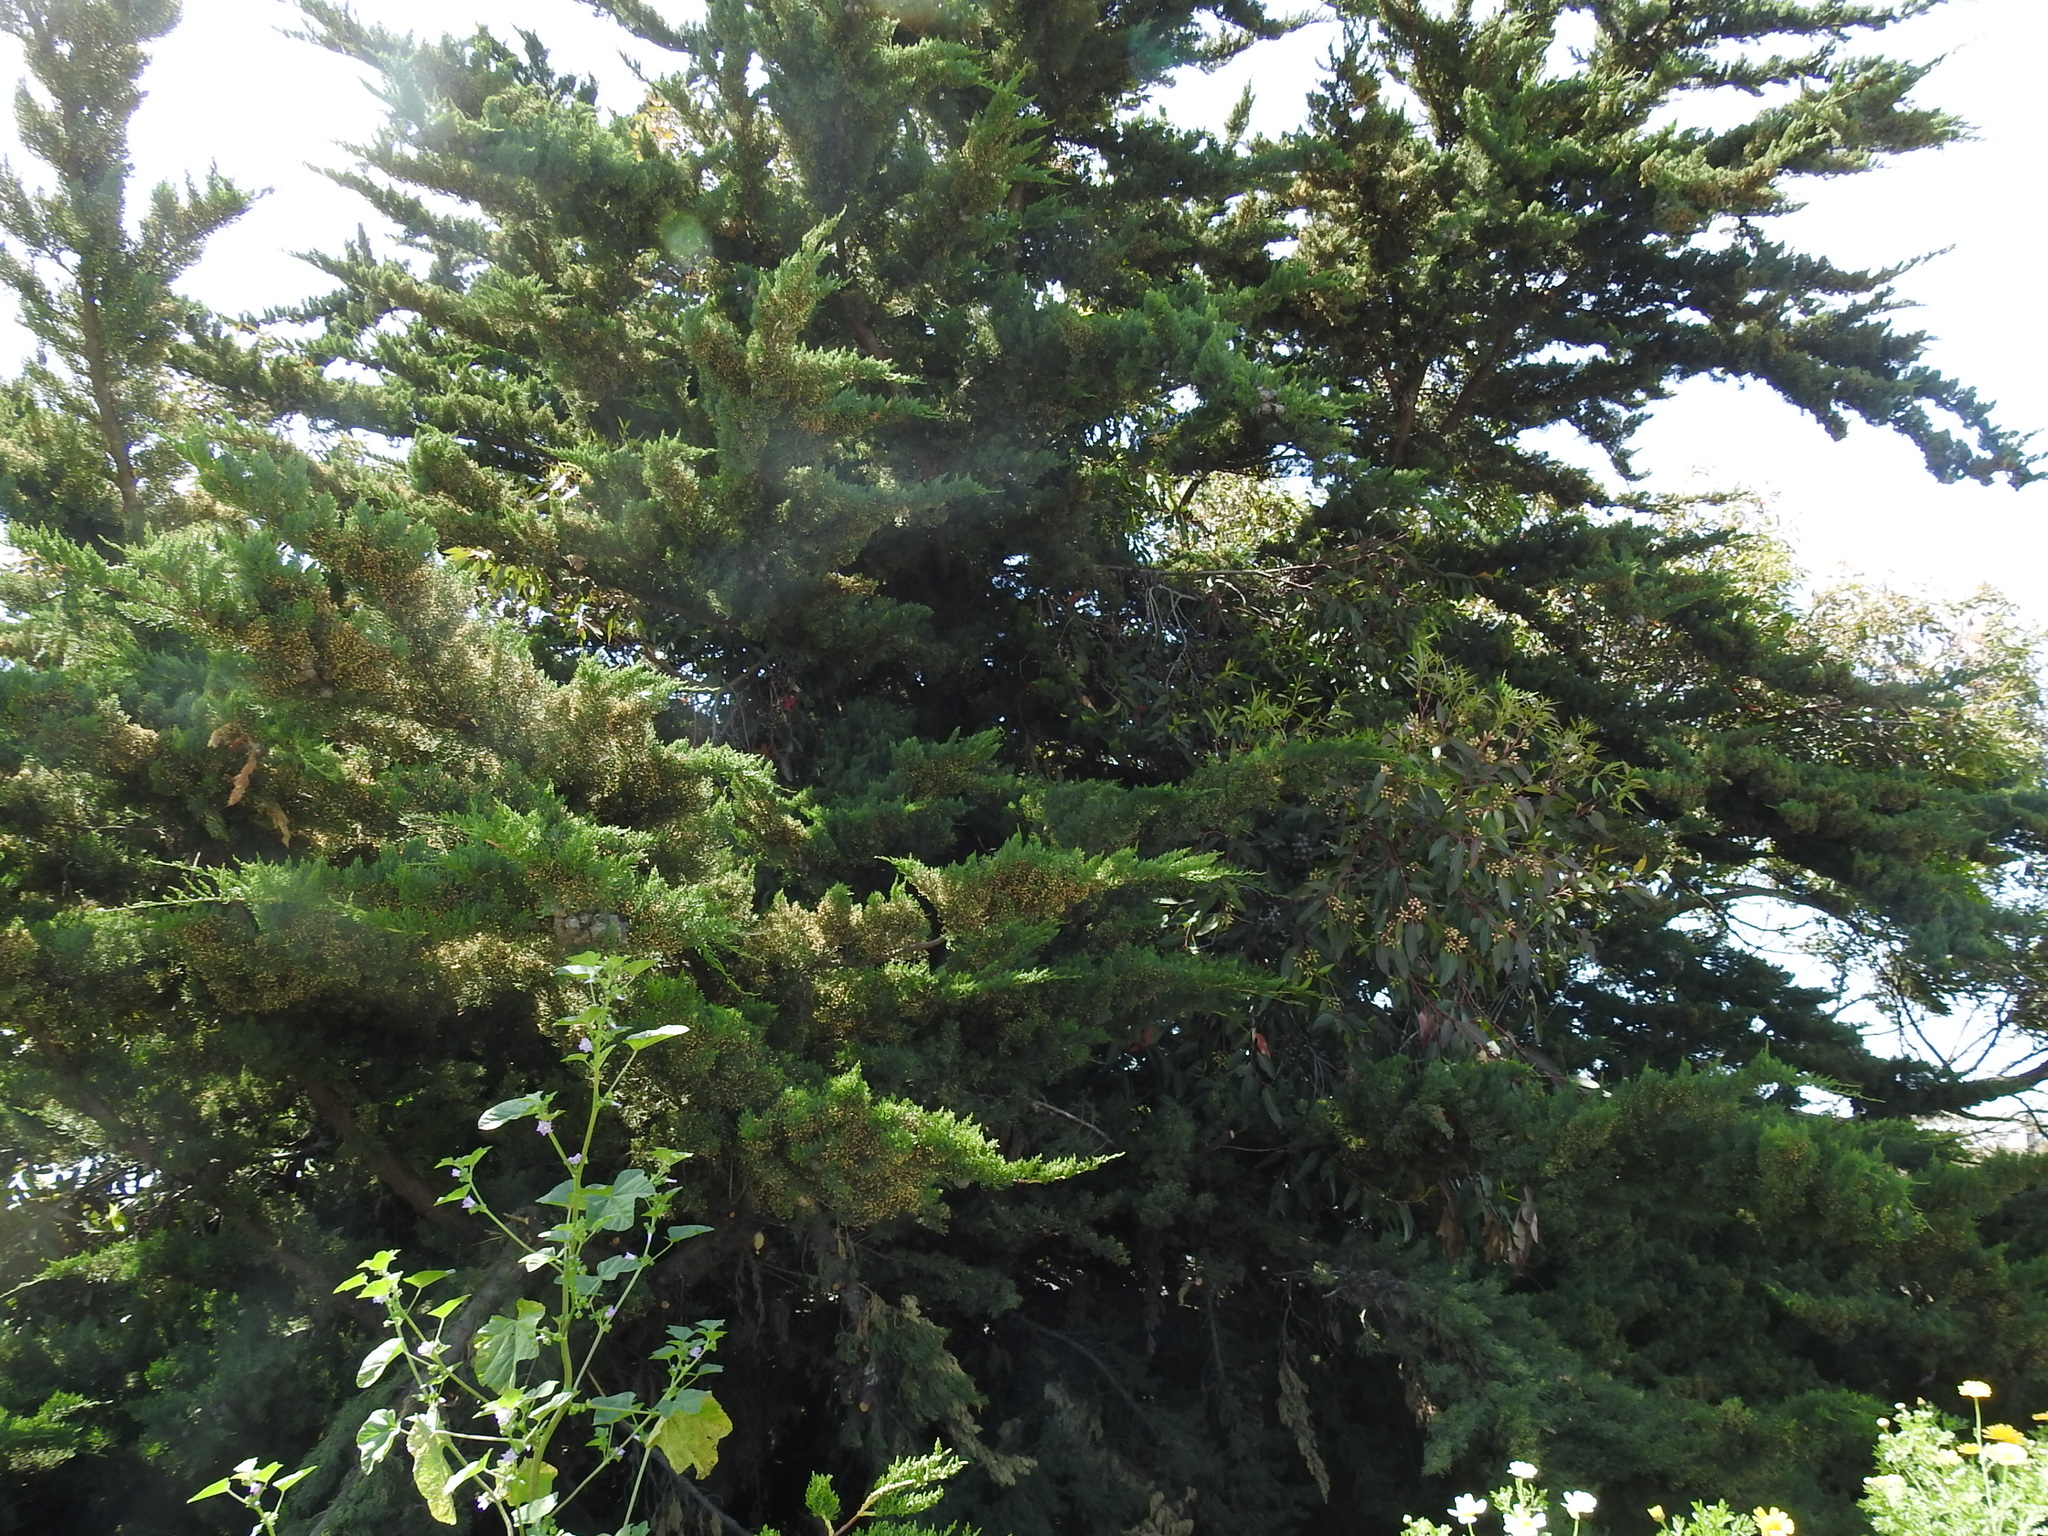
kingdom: Plantae
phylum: Tracheophyta
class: Pinopsida
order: Pinales
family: Cupressaceae
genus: Cupressus
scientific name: Cupressus macrocarpa
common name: Monterey cypress
